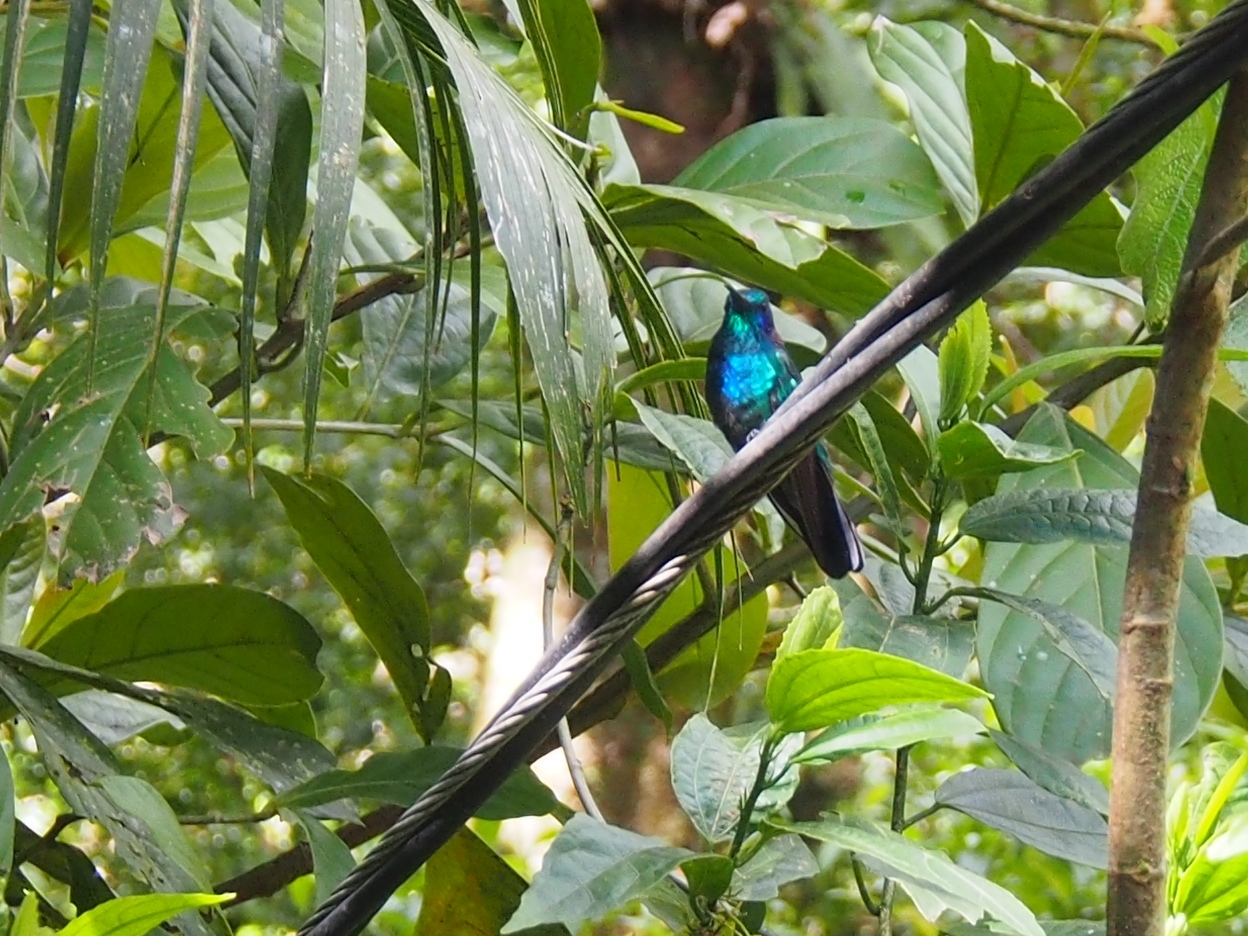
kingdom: Animalia
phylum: Chordata
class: Aves
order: Apodiformes
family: Trochilidae
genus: Colibri
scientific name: Colibri cyanotus
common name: Lesser violetear
